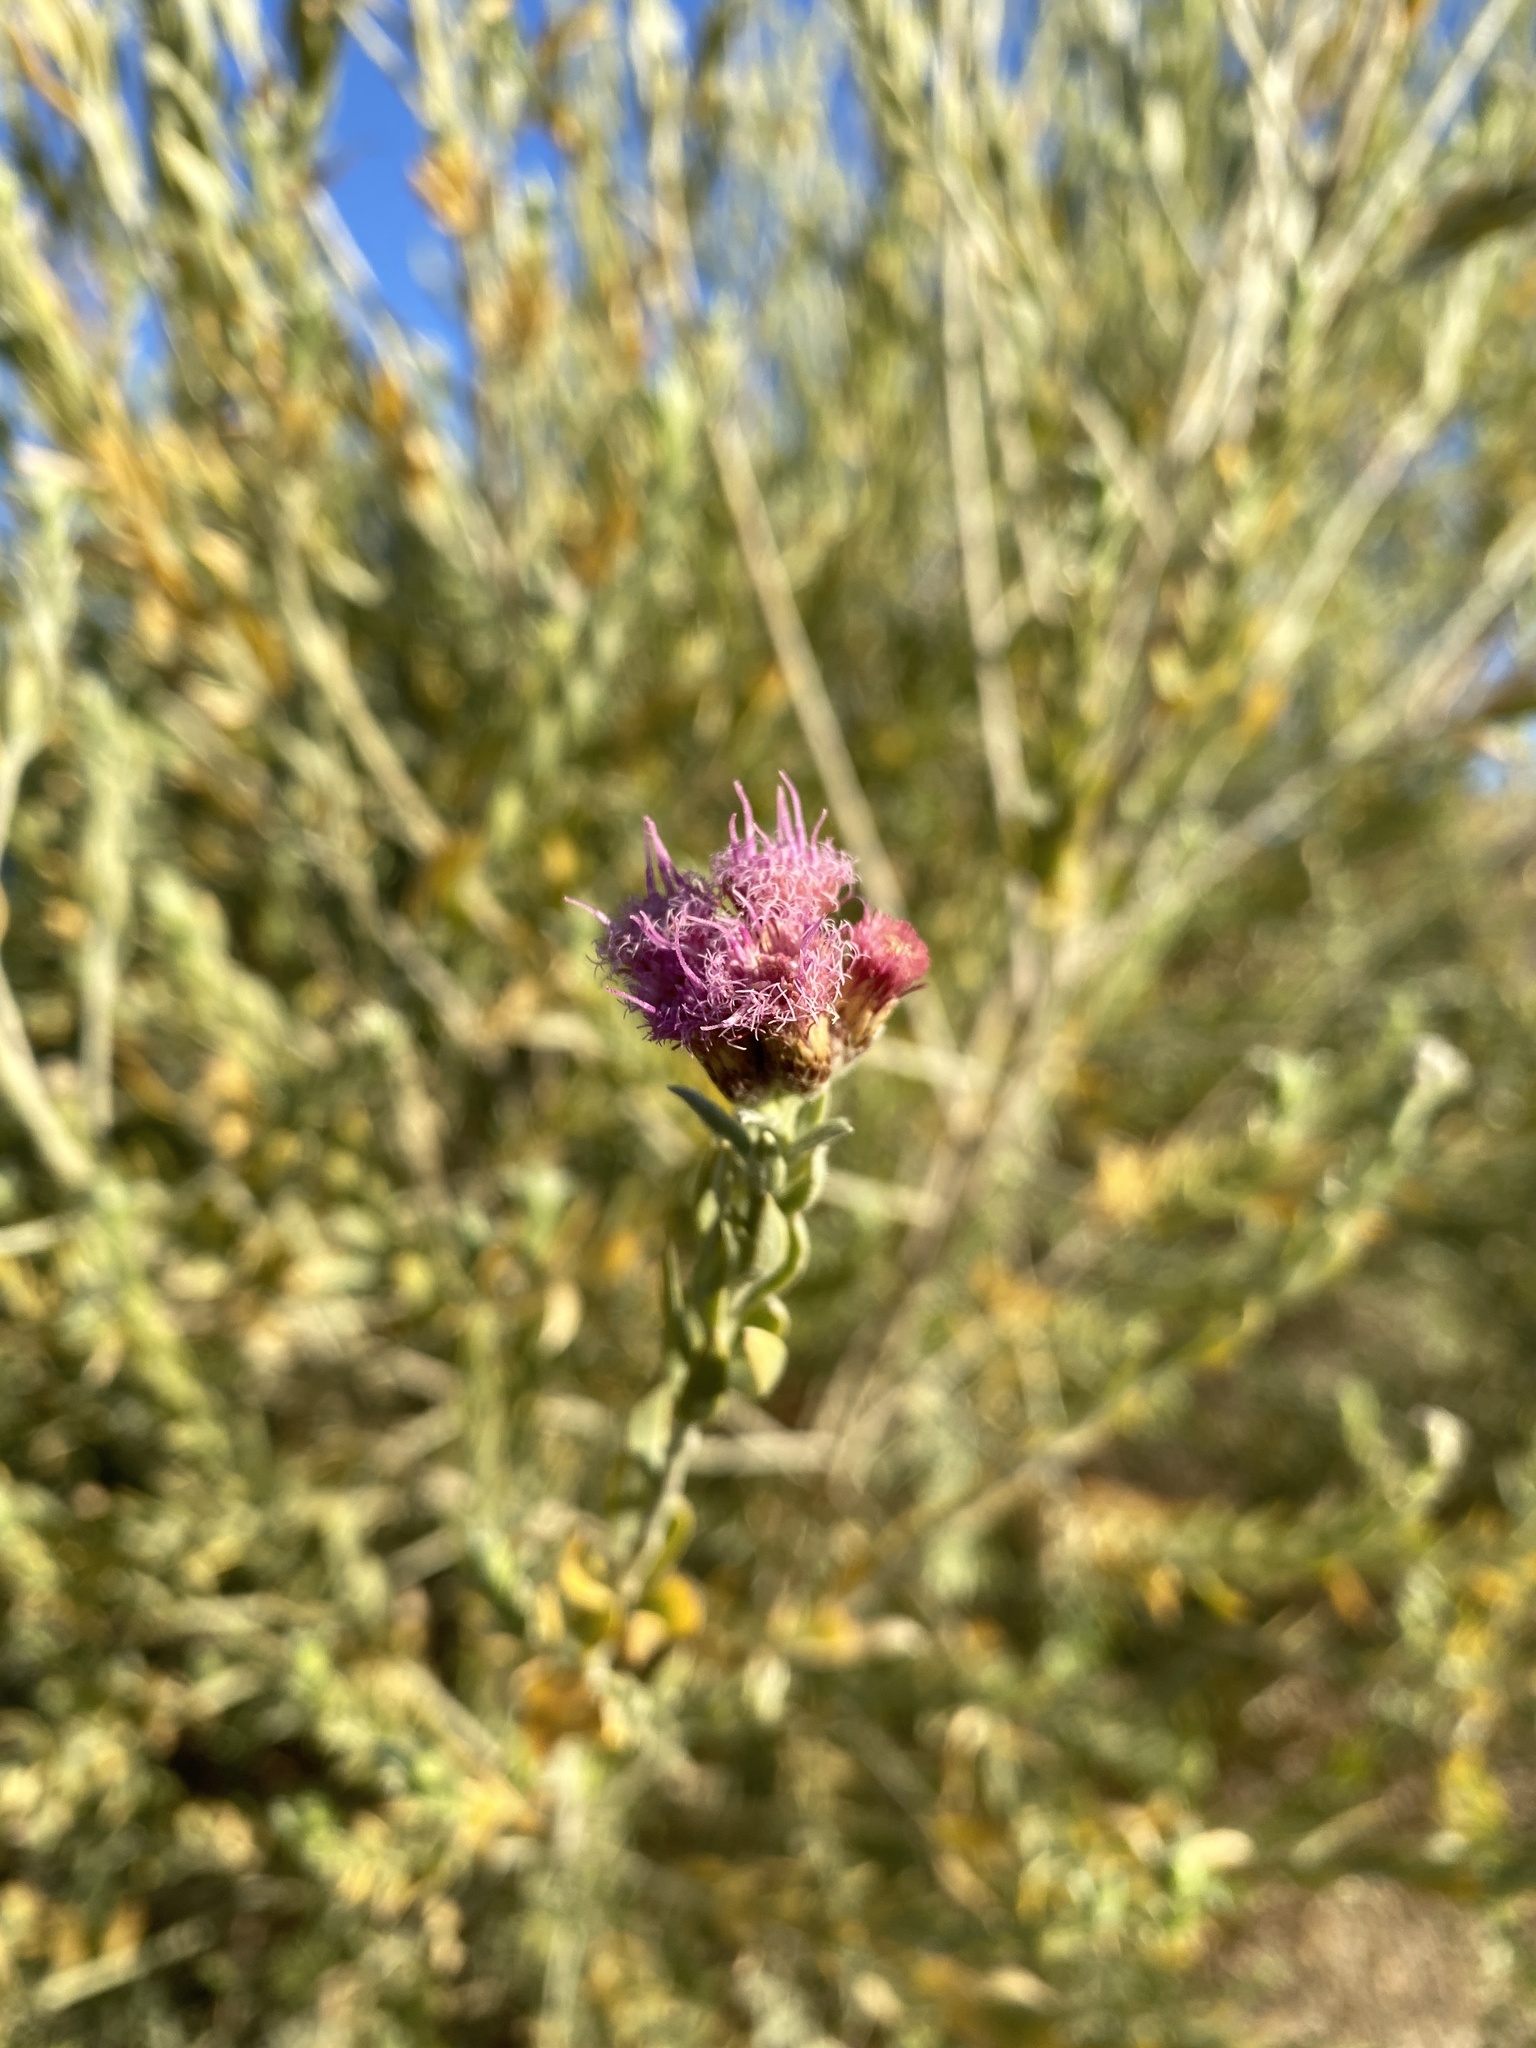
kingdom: Plantae
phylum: Tracheophyta
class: Magnoliopsida
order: Asterales
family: Asteraceae
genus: Pluchea
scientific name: Pluchea sericea
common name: Arrow-weed
